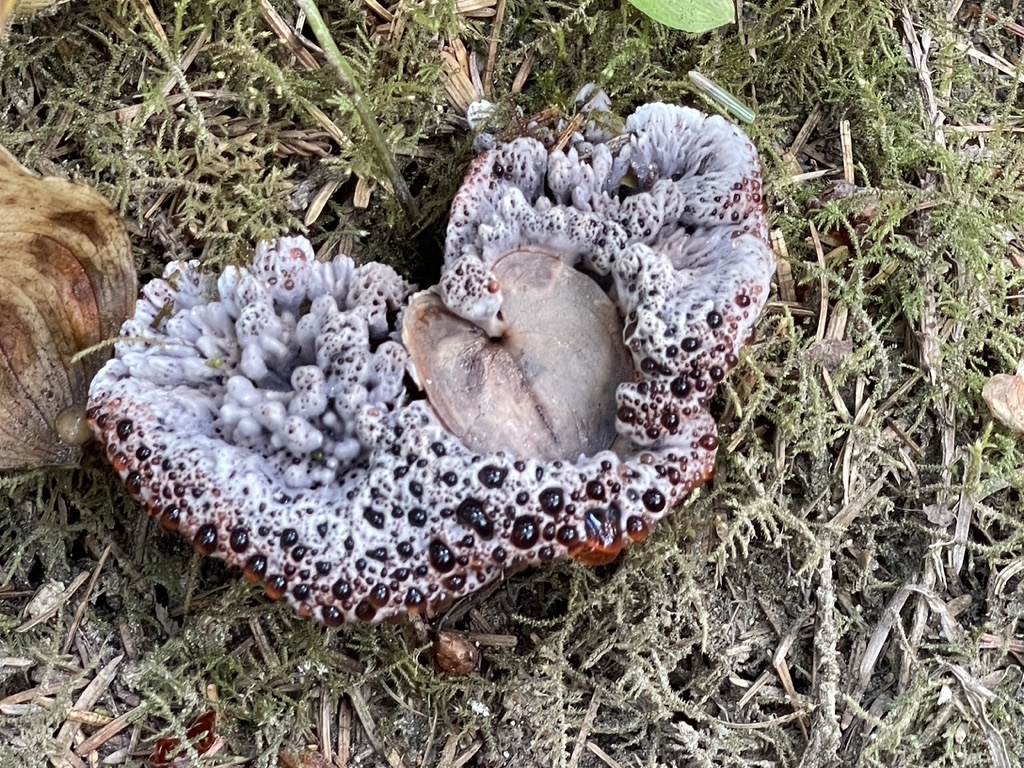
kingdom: Fungi
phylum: Basidiomycota
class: Agaricomycetes
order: Thelephorales
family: Bankeraceae
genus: Hydnellum
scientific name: Hydnellum cyanopodium
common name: Bleeding blue tooth
